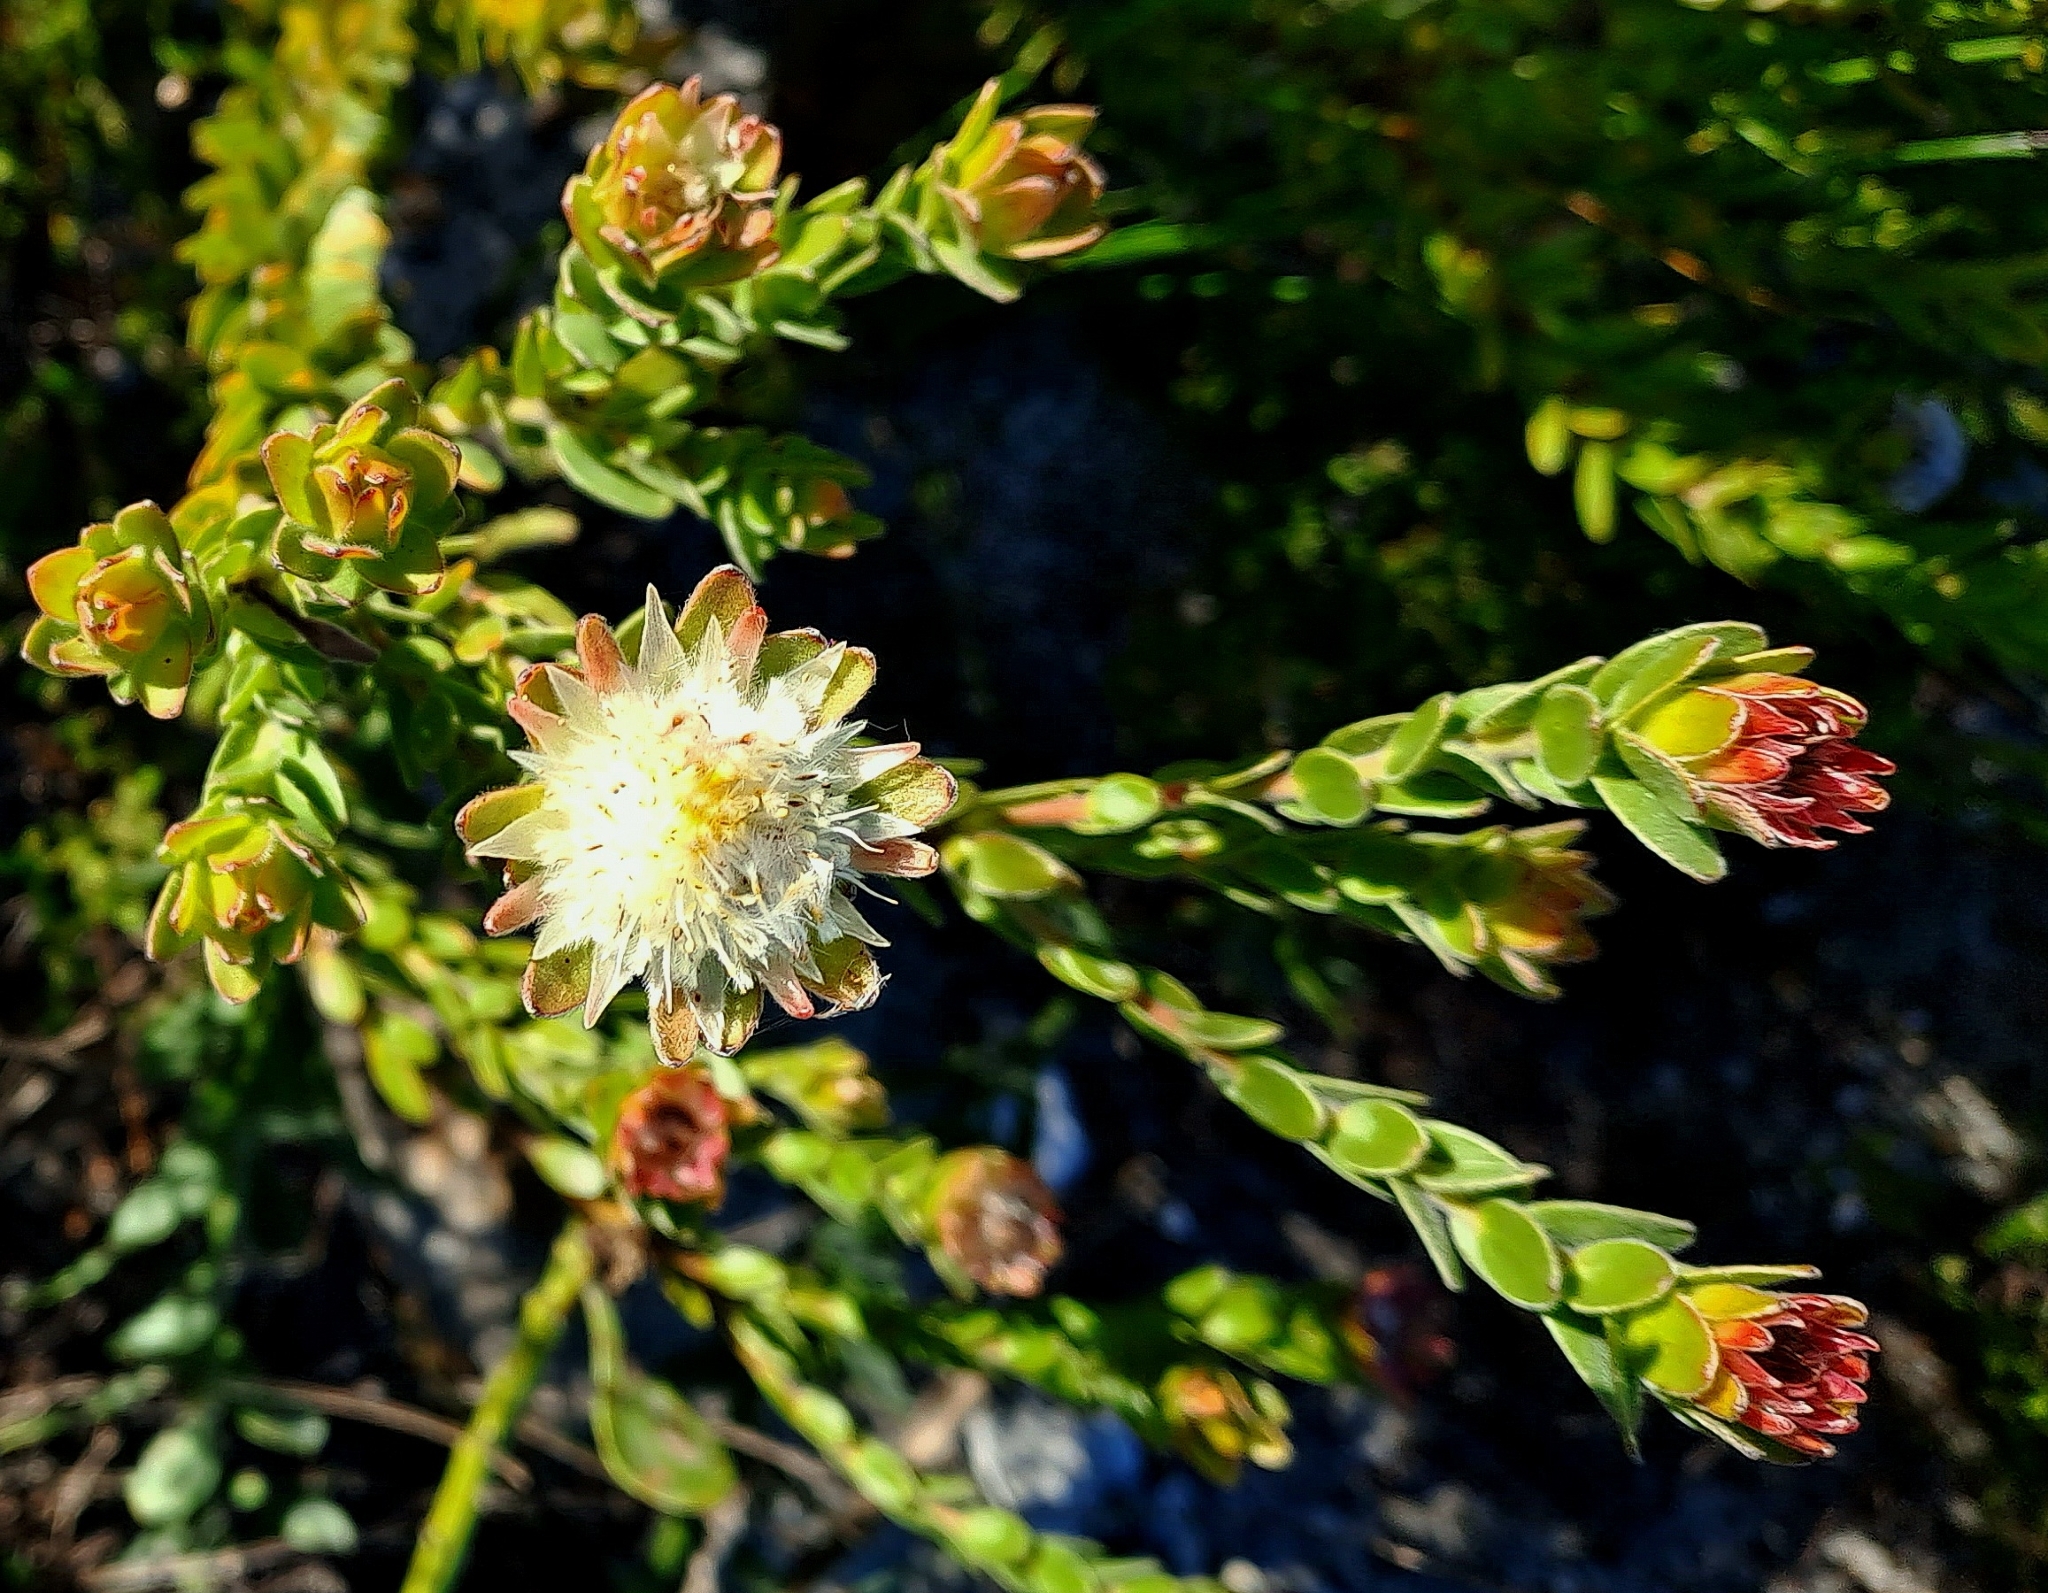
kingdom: Plantae
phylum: Tracheophyta
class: Magnoliopsida
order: Proteales
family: Proteaceae
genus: Diastella
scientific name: Diastella thymelaeoides
